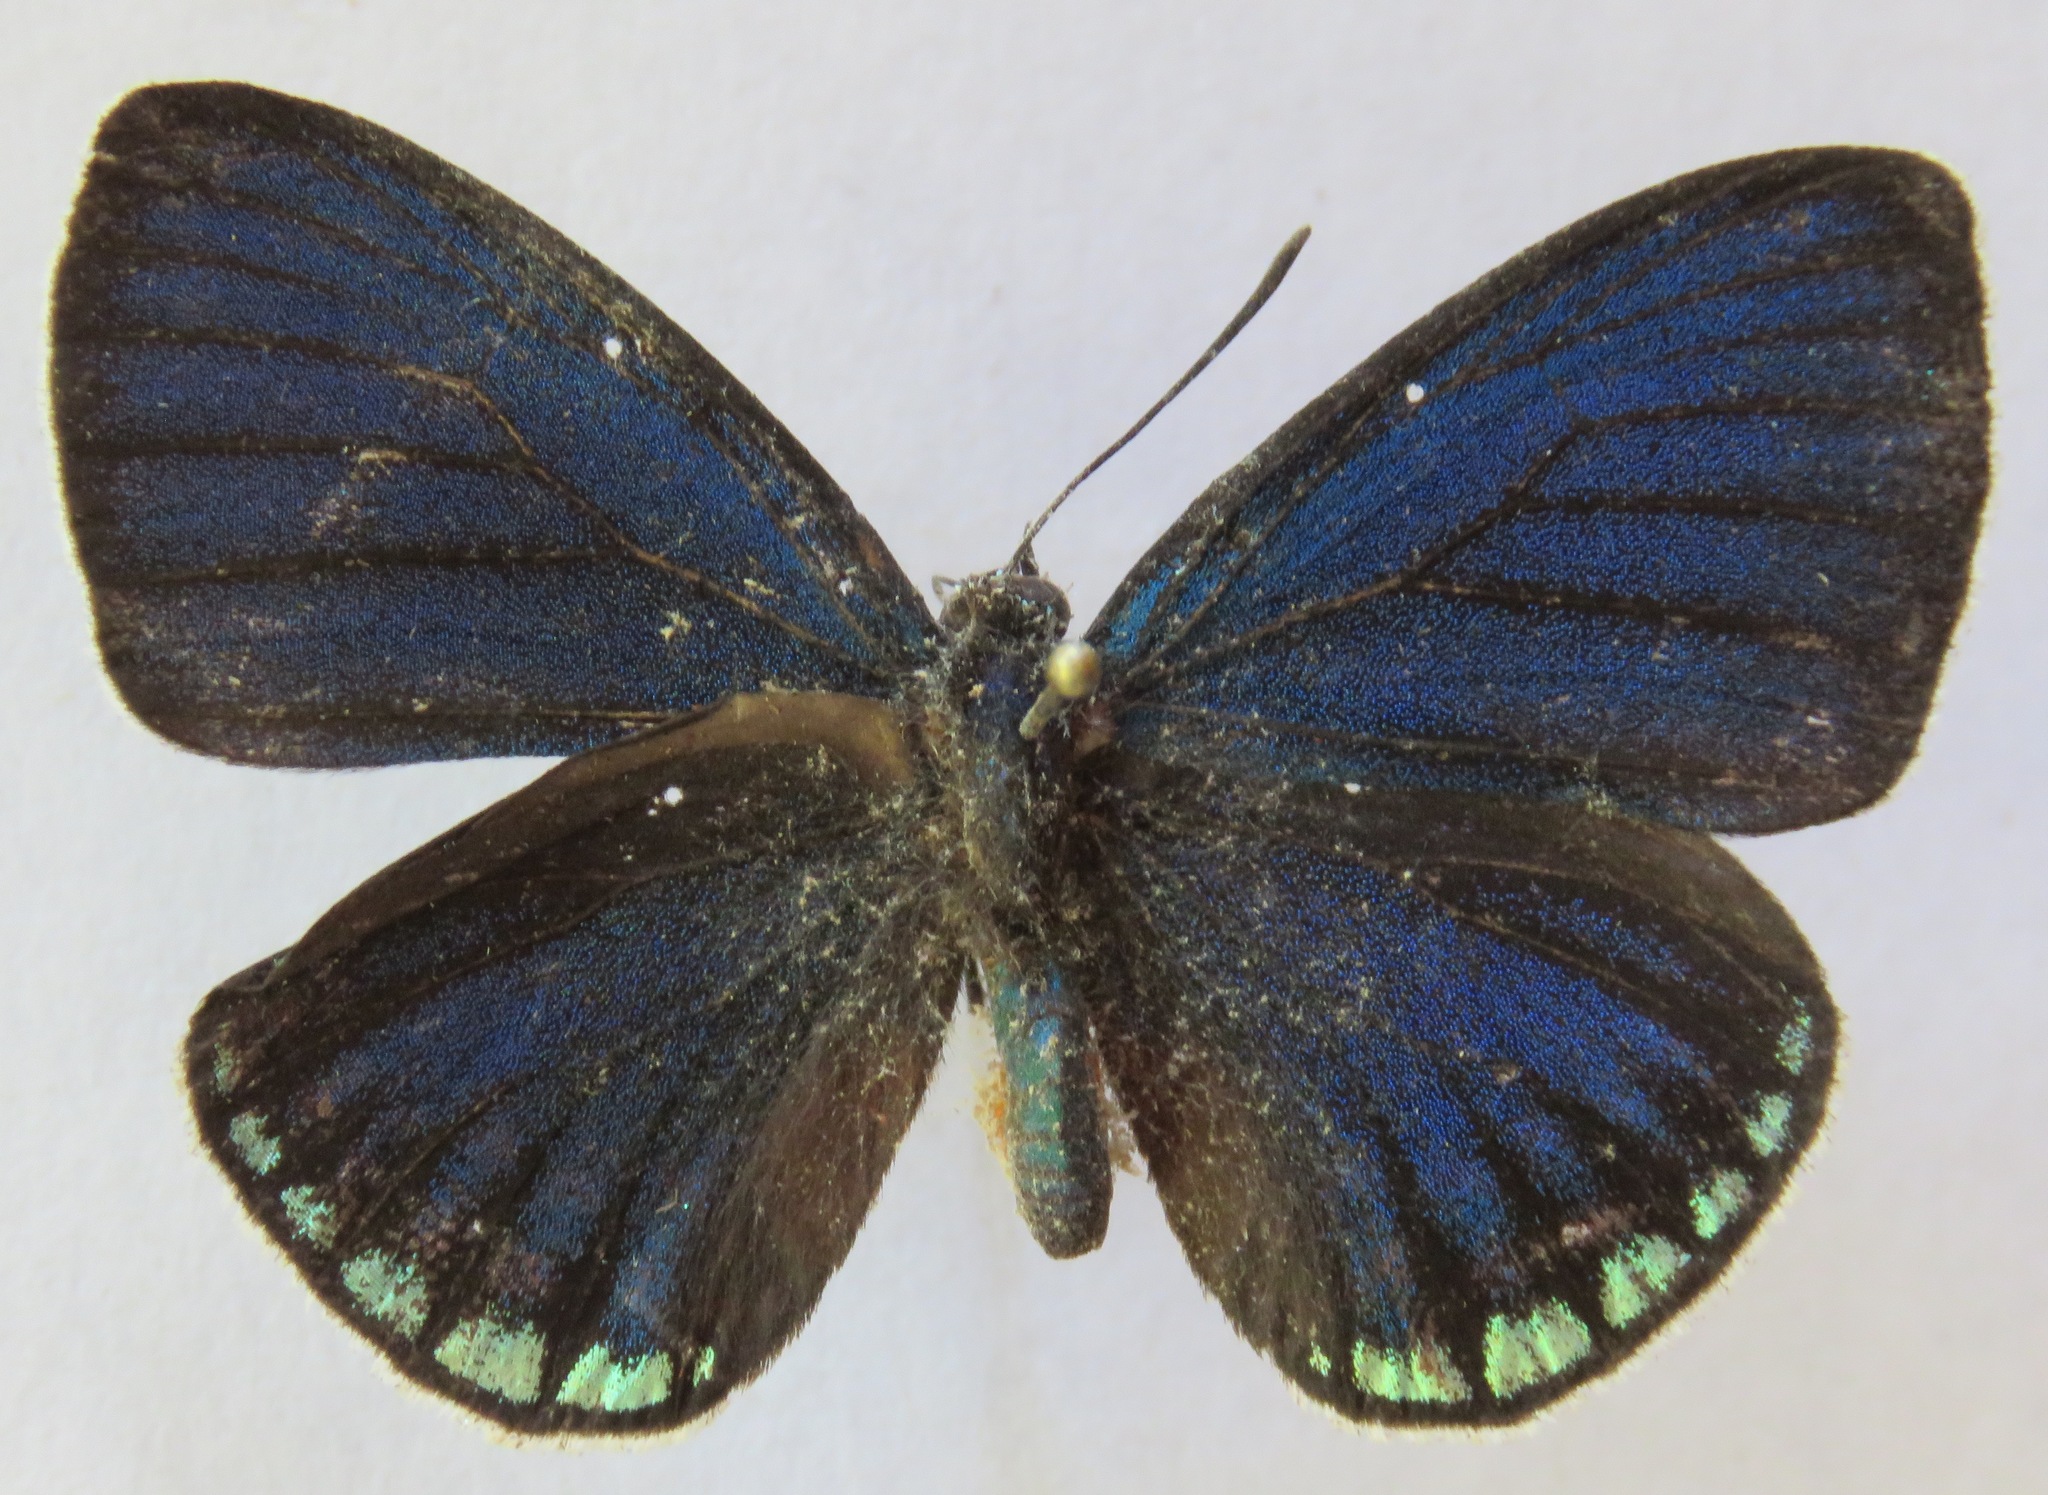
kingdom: Animalia
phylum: Arthropoda
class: Insecta
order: Lepidoptera
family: Lycaenidae
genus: Eumaeus
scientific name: Eumaeus godartii
